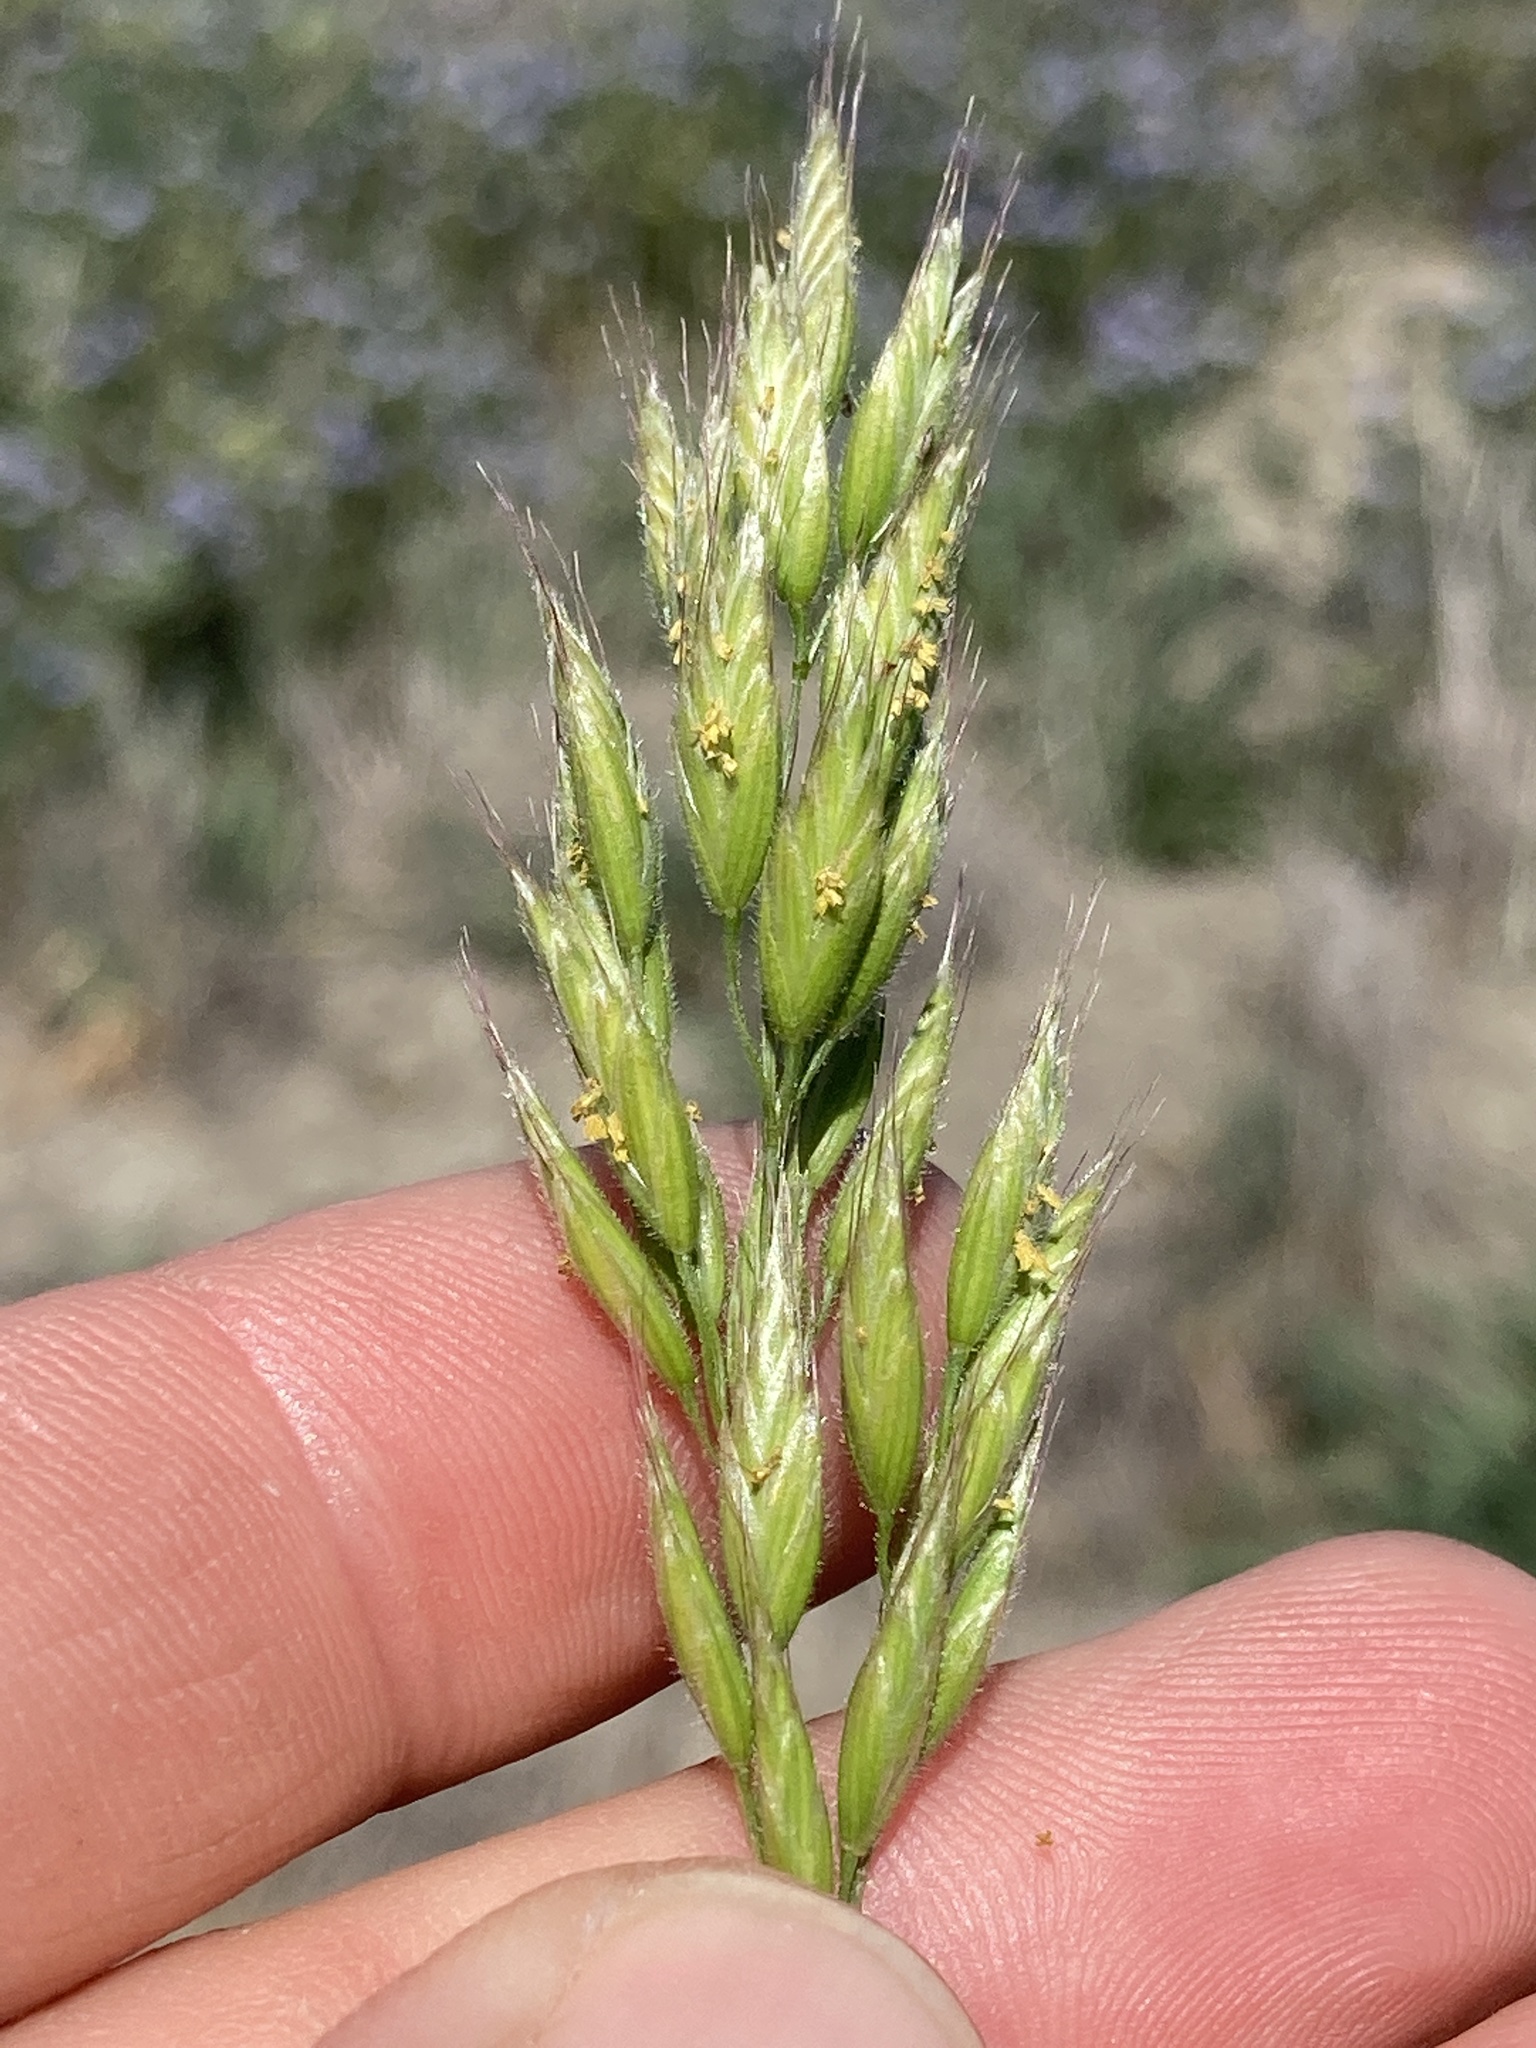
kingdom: Plantae
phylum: Tracheophyta
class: Liliopsida
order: Poales
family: Poaceae
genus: Bromus
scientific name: Bromus hordeaceus
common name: Soft brome
